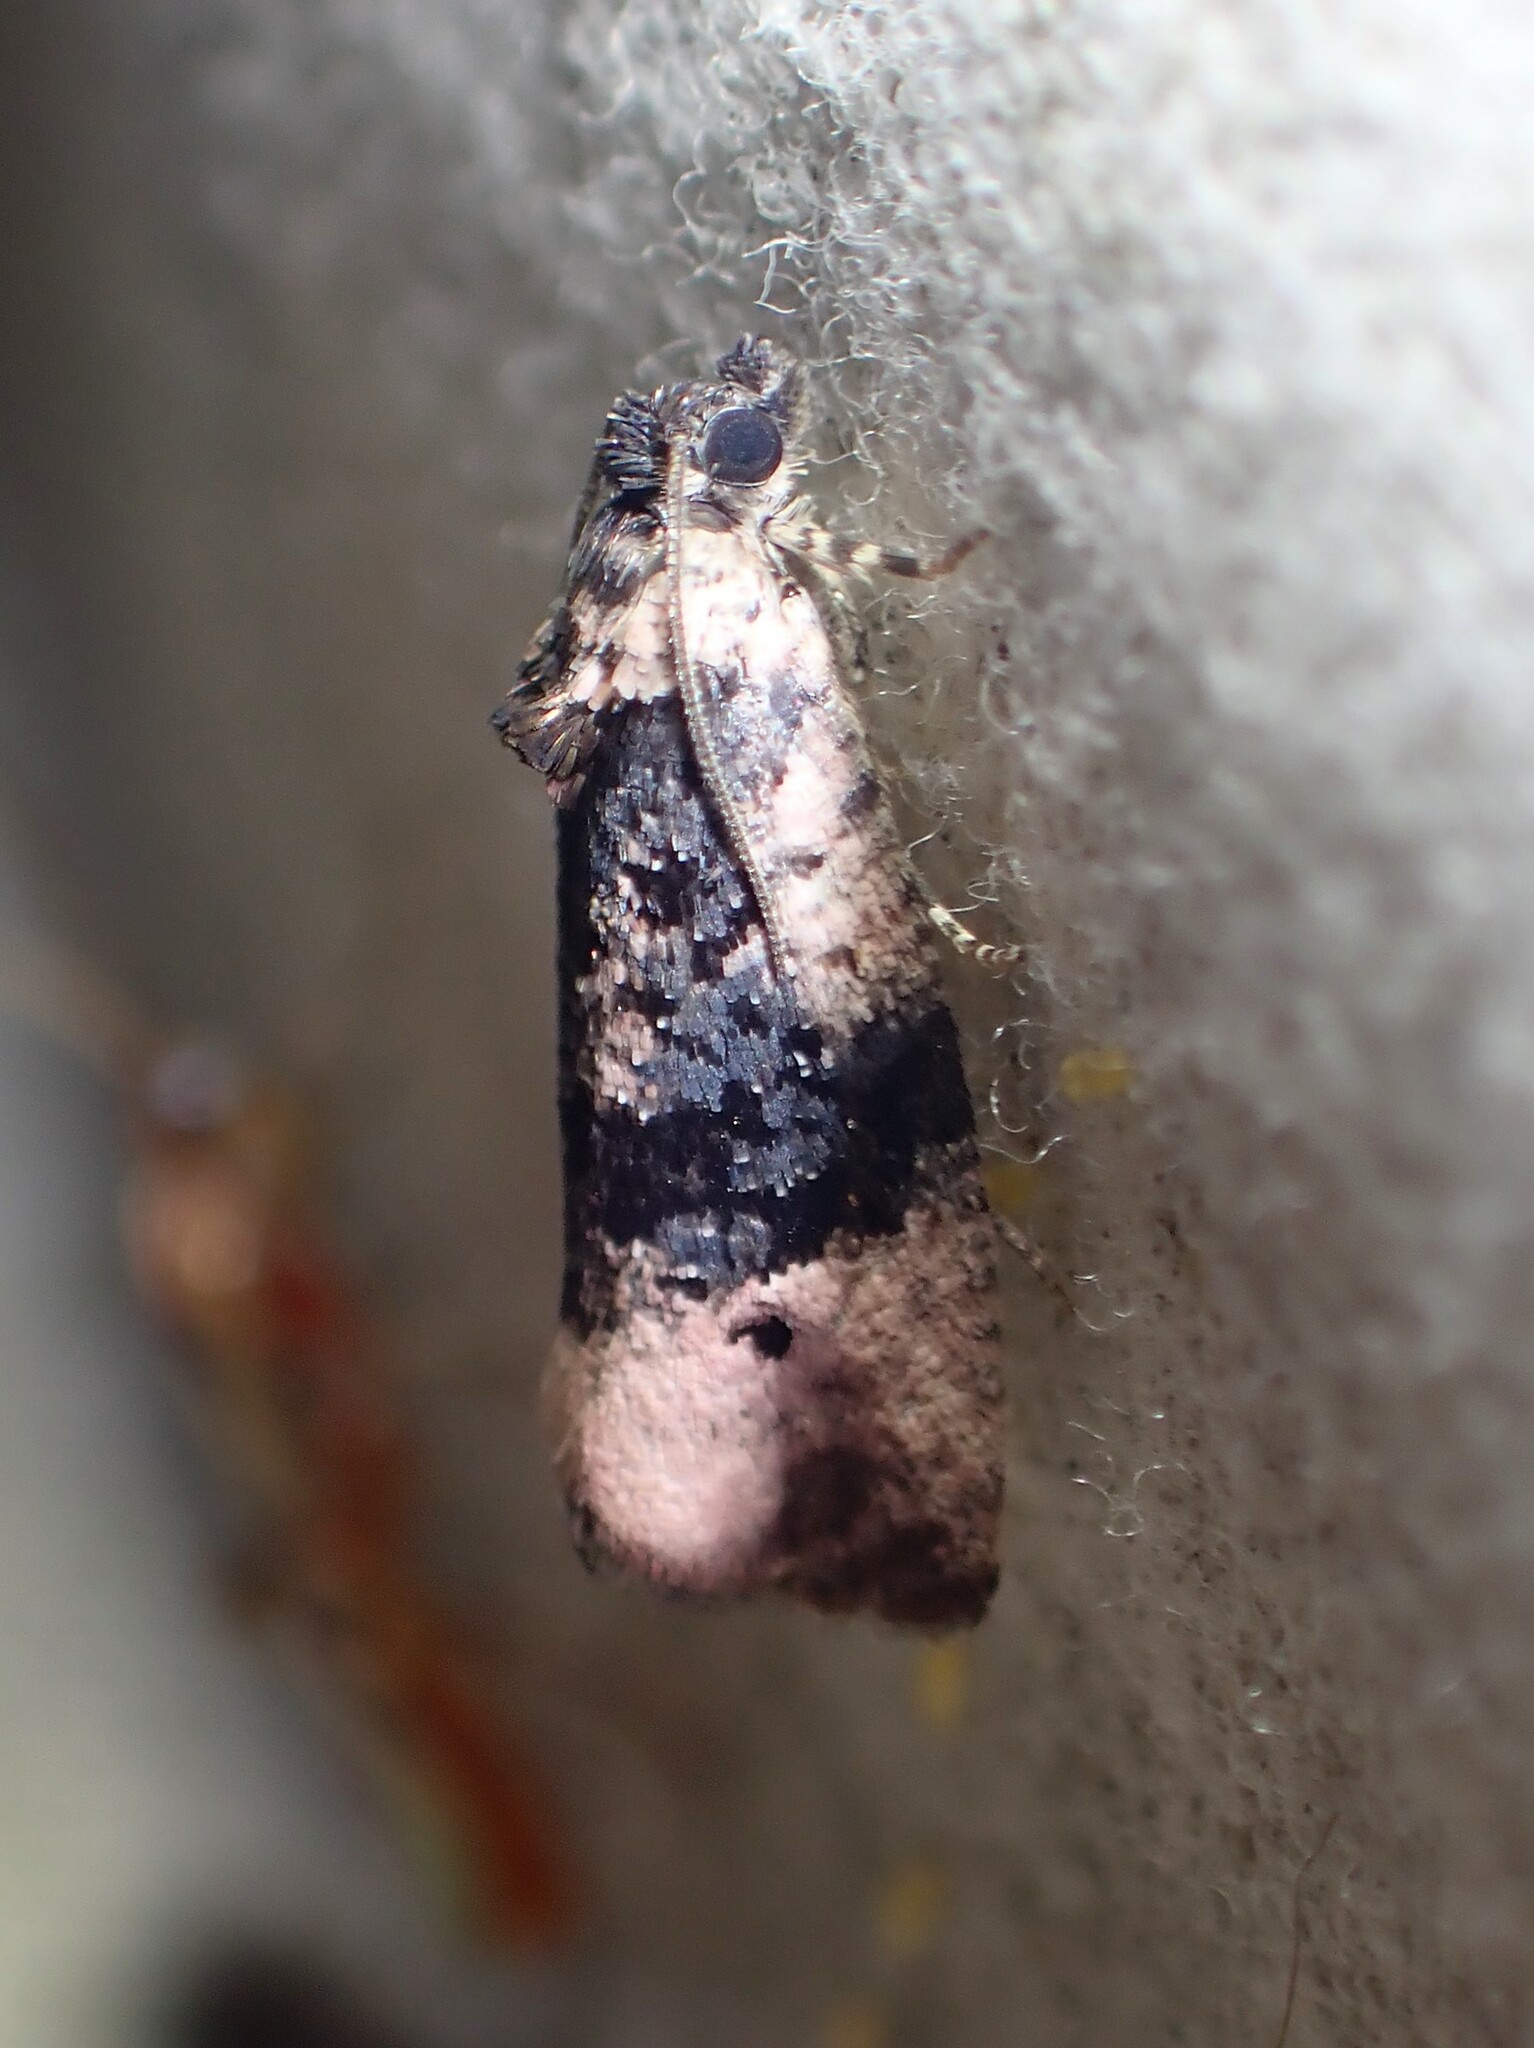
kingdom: Animalia
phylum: Arthropoda
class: Insecta
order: Lepidoptera
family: Tortricidae
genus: Hedya
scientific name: Hedya separatana
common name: Pink-washed leafroller moth
